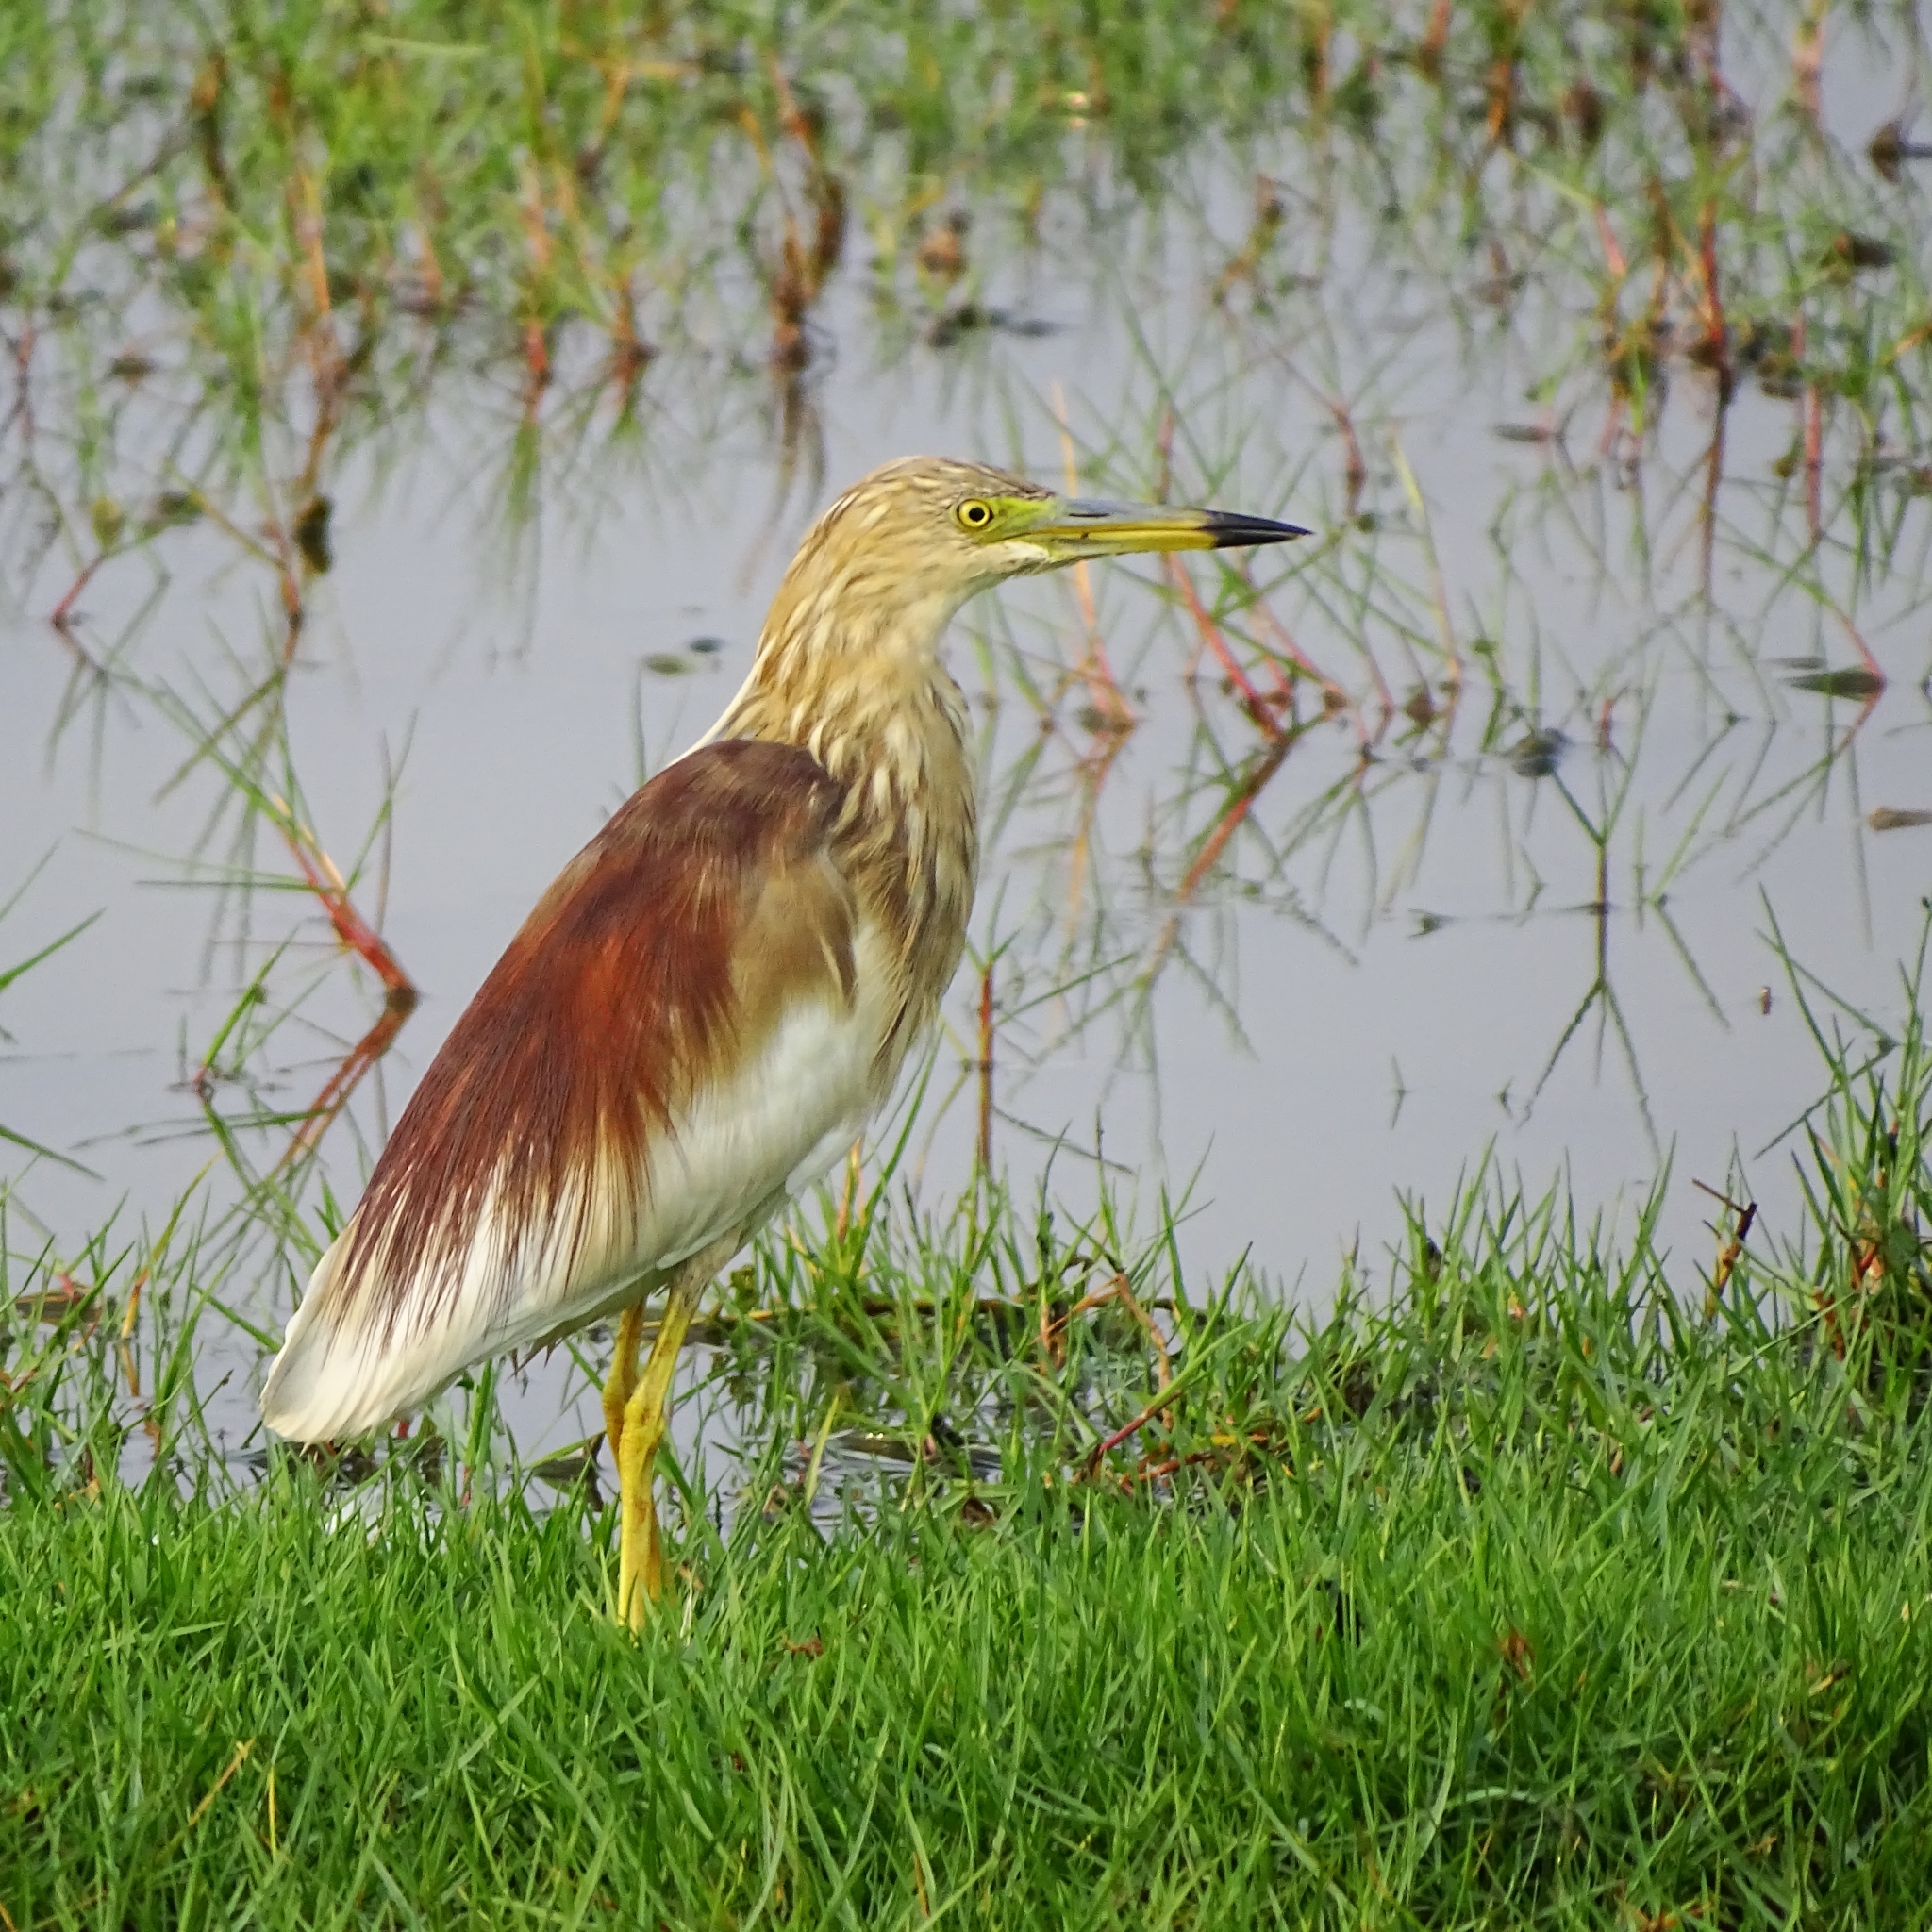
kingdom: Animalia
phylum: Chordata
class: Aves
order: Pelecaniformes
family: Ardeidae
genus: Ardeola
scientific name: Ardeola grayii
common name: Indian pond heron
